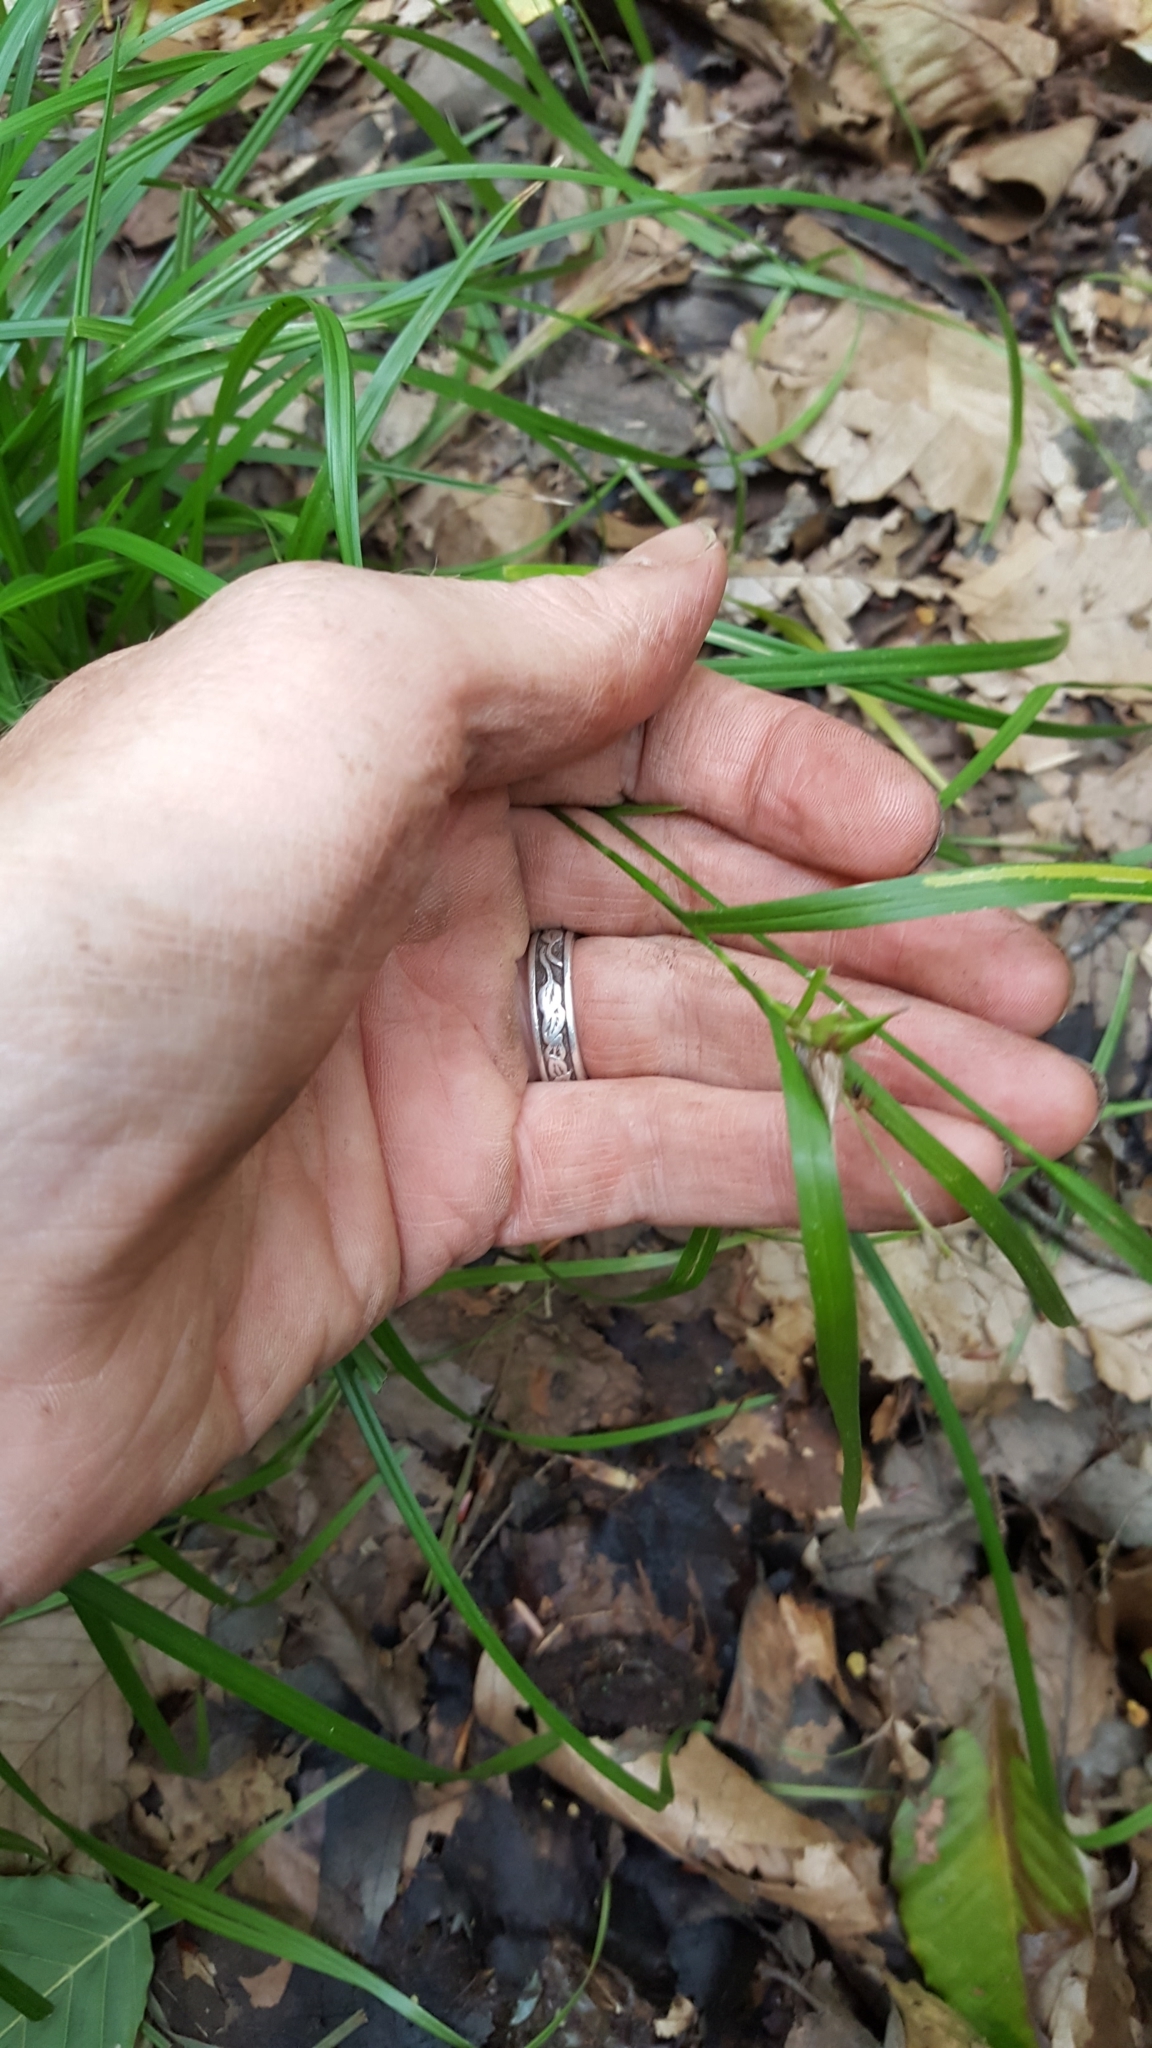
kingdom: Plantae
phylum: Tracheophyta
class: Liliopsida
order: Poales
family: Cyperaceae
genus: Carex
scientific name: Carex intumescens
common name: Greater bladder sedge
